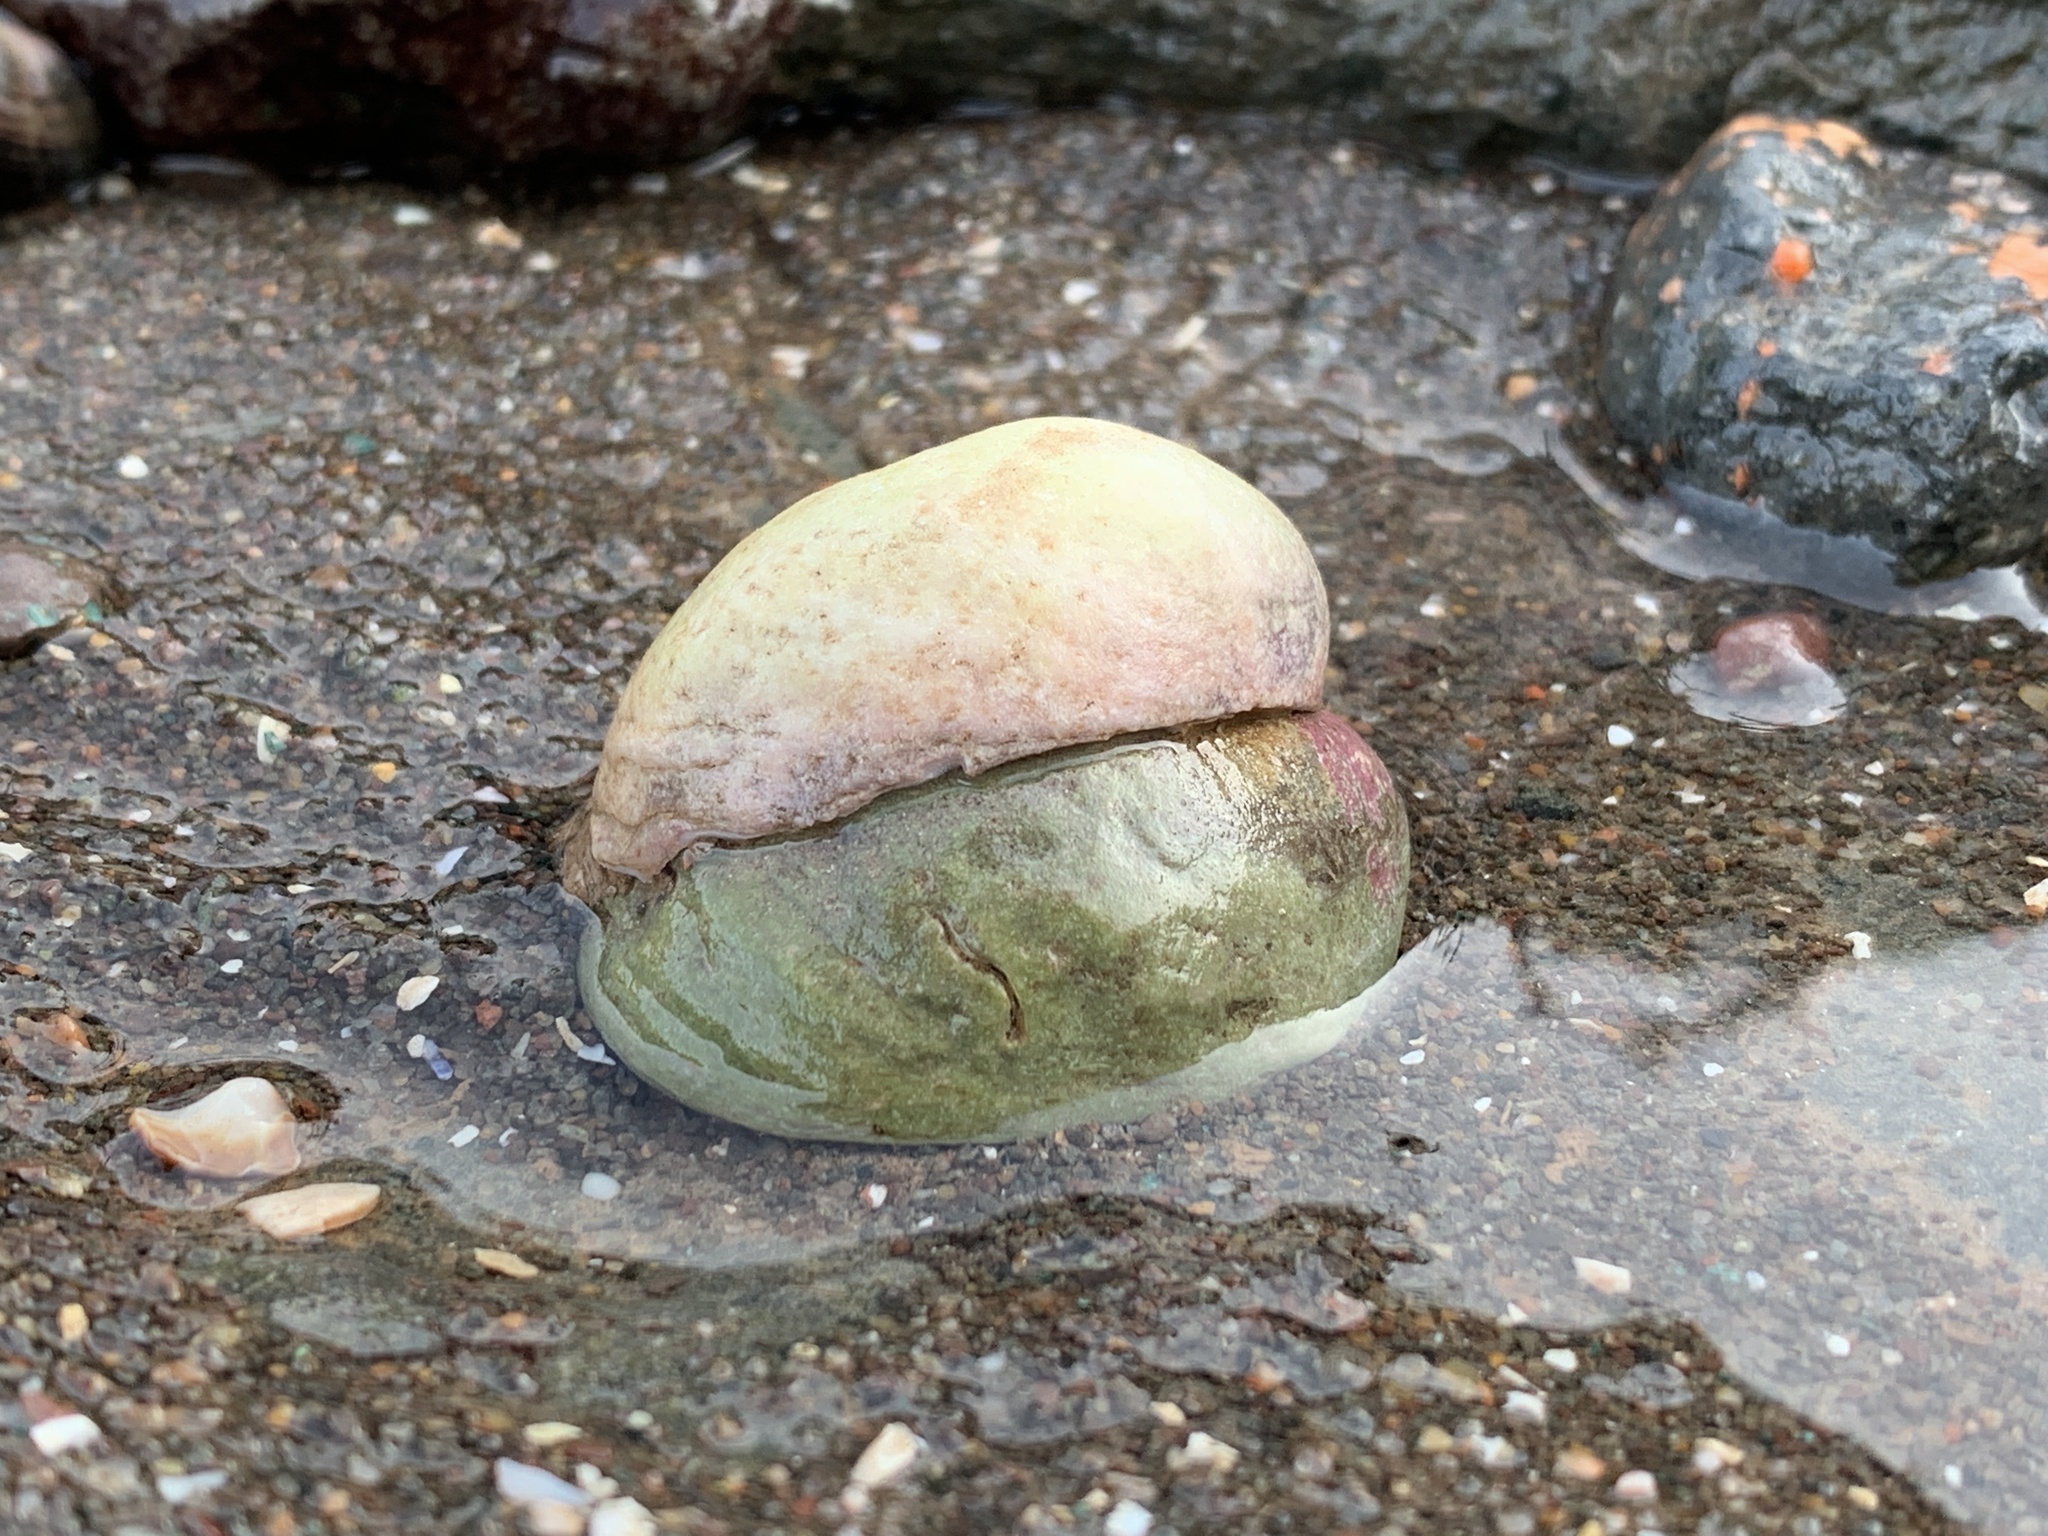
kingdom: Animalia
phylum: Mollusca
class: Gastropoda
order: Littorinimorpha
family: Calyptraeidae
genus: Crepidula
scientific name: Crepidula fornicata
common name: Slipper limpet
